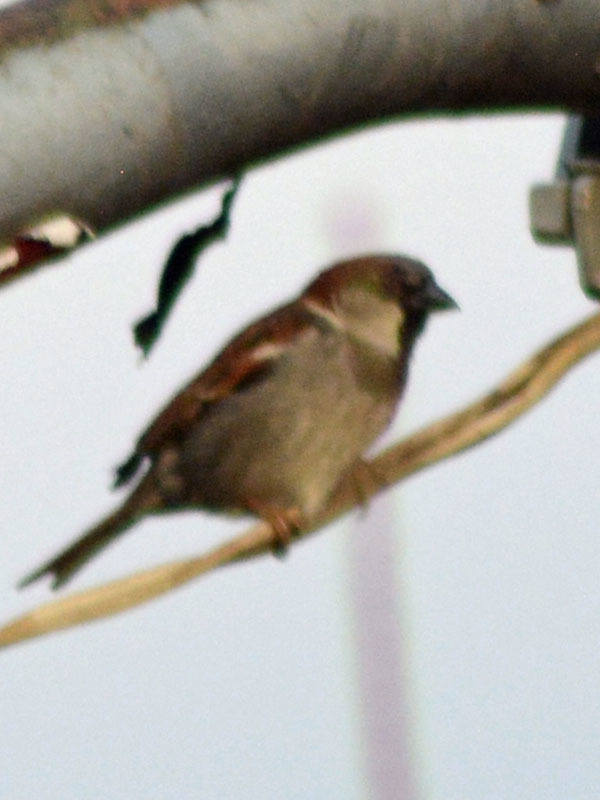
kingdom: Animalia
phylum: Chordata
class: Aves
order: Passeriformes
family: Passeridae
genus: Passer
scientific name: Passer domesticus
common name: House sparrow
